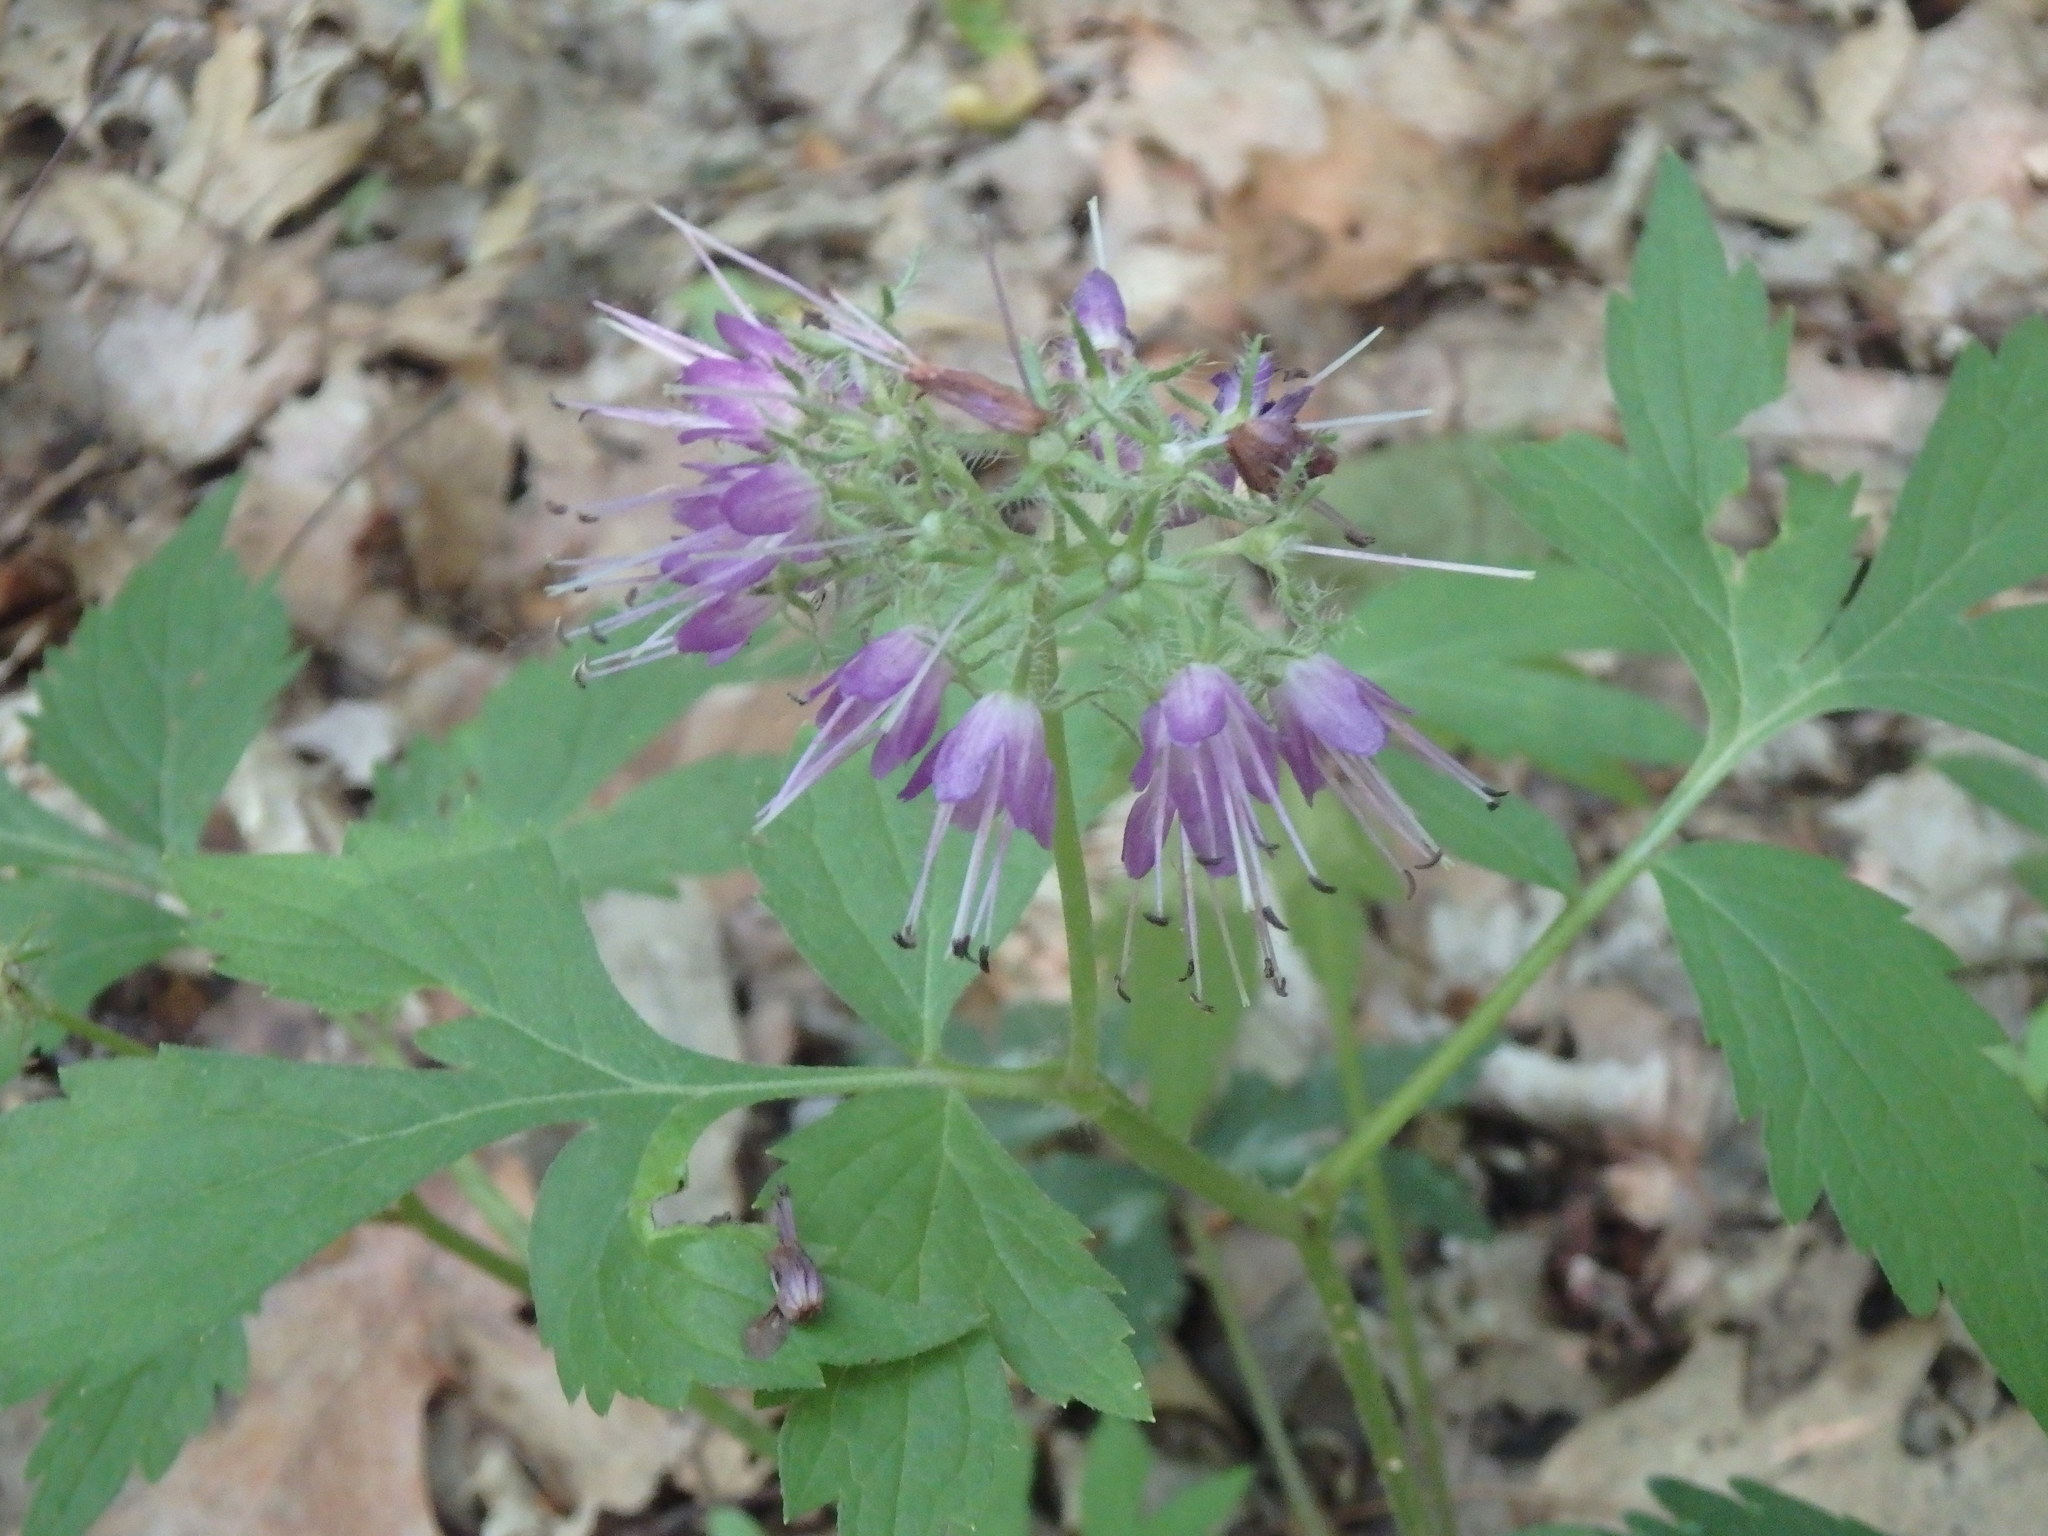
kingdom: Plantae
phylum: Tracheophyta
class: Magnoliopsida
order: Boraginales
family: Hydrophyllaceae
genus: Hydrophyllum
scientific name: Hydrophyllum virginianum
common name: Virginia waterleaf
